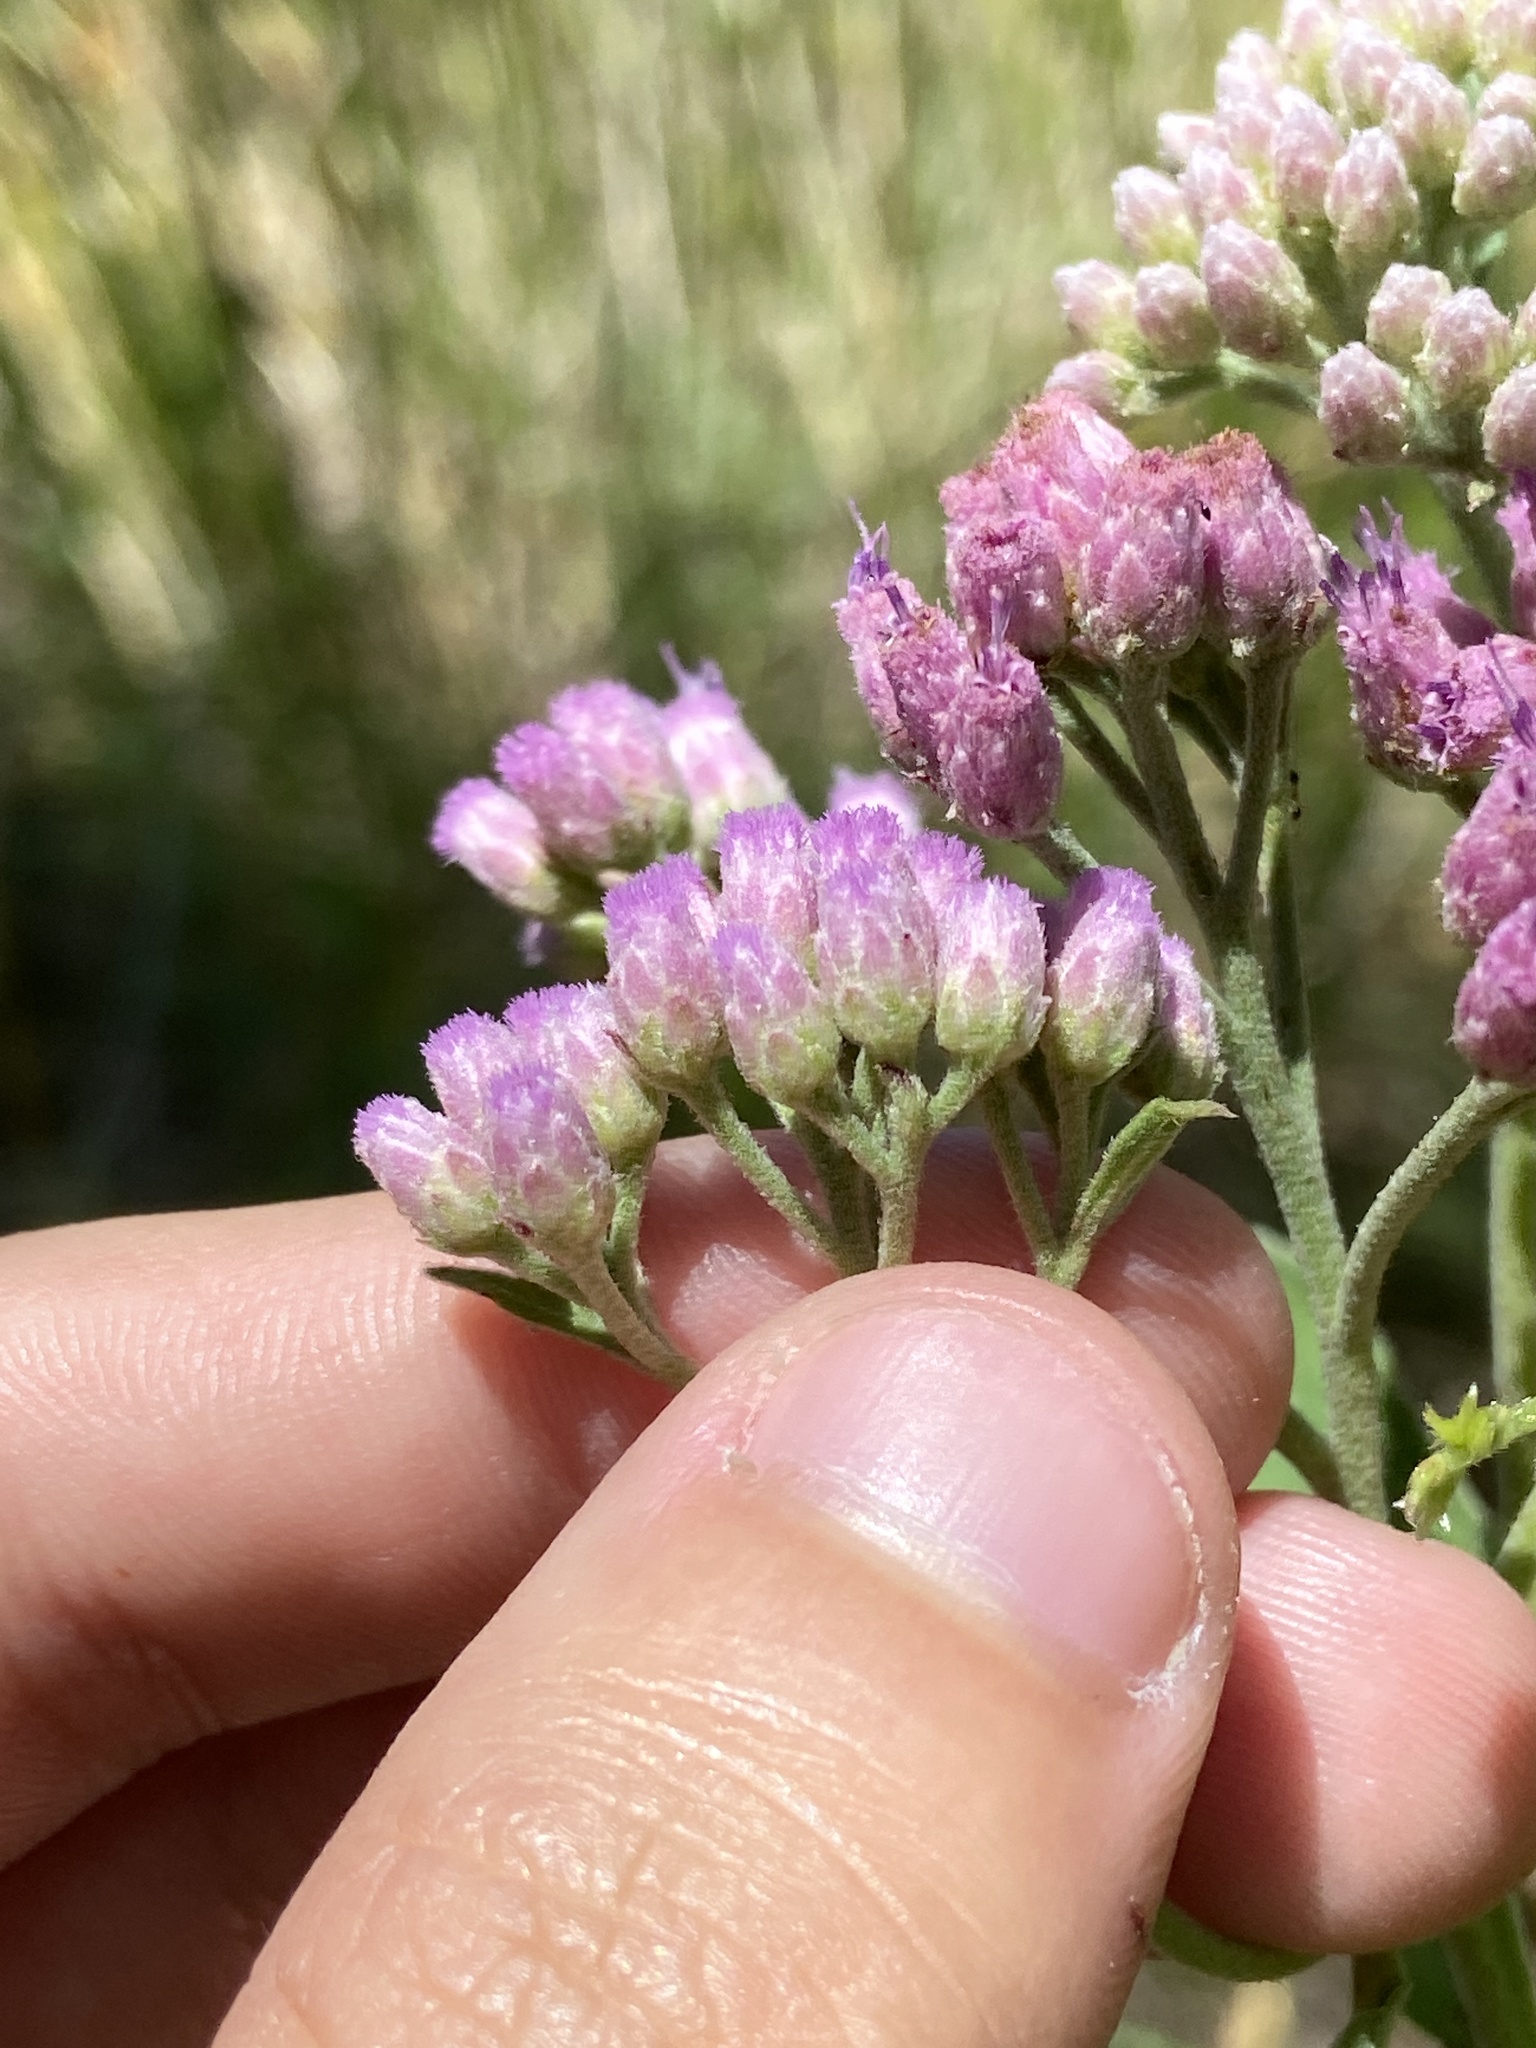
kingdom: Plantae
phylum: Tracheophyta
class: Magnoliopsida
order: Asterales
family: Asteraceae
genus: Pluchea
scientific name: Pluchea odorata
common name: Saltmarsh fleabane
